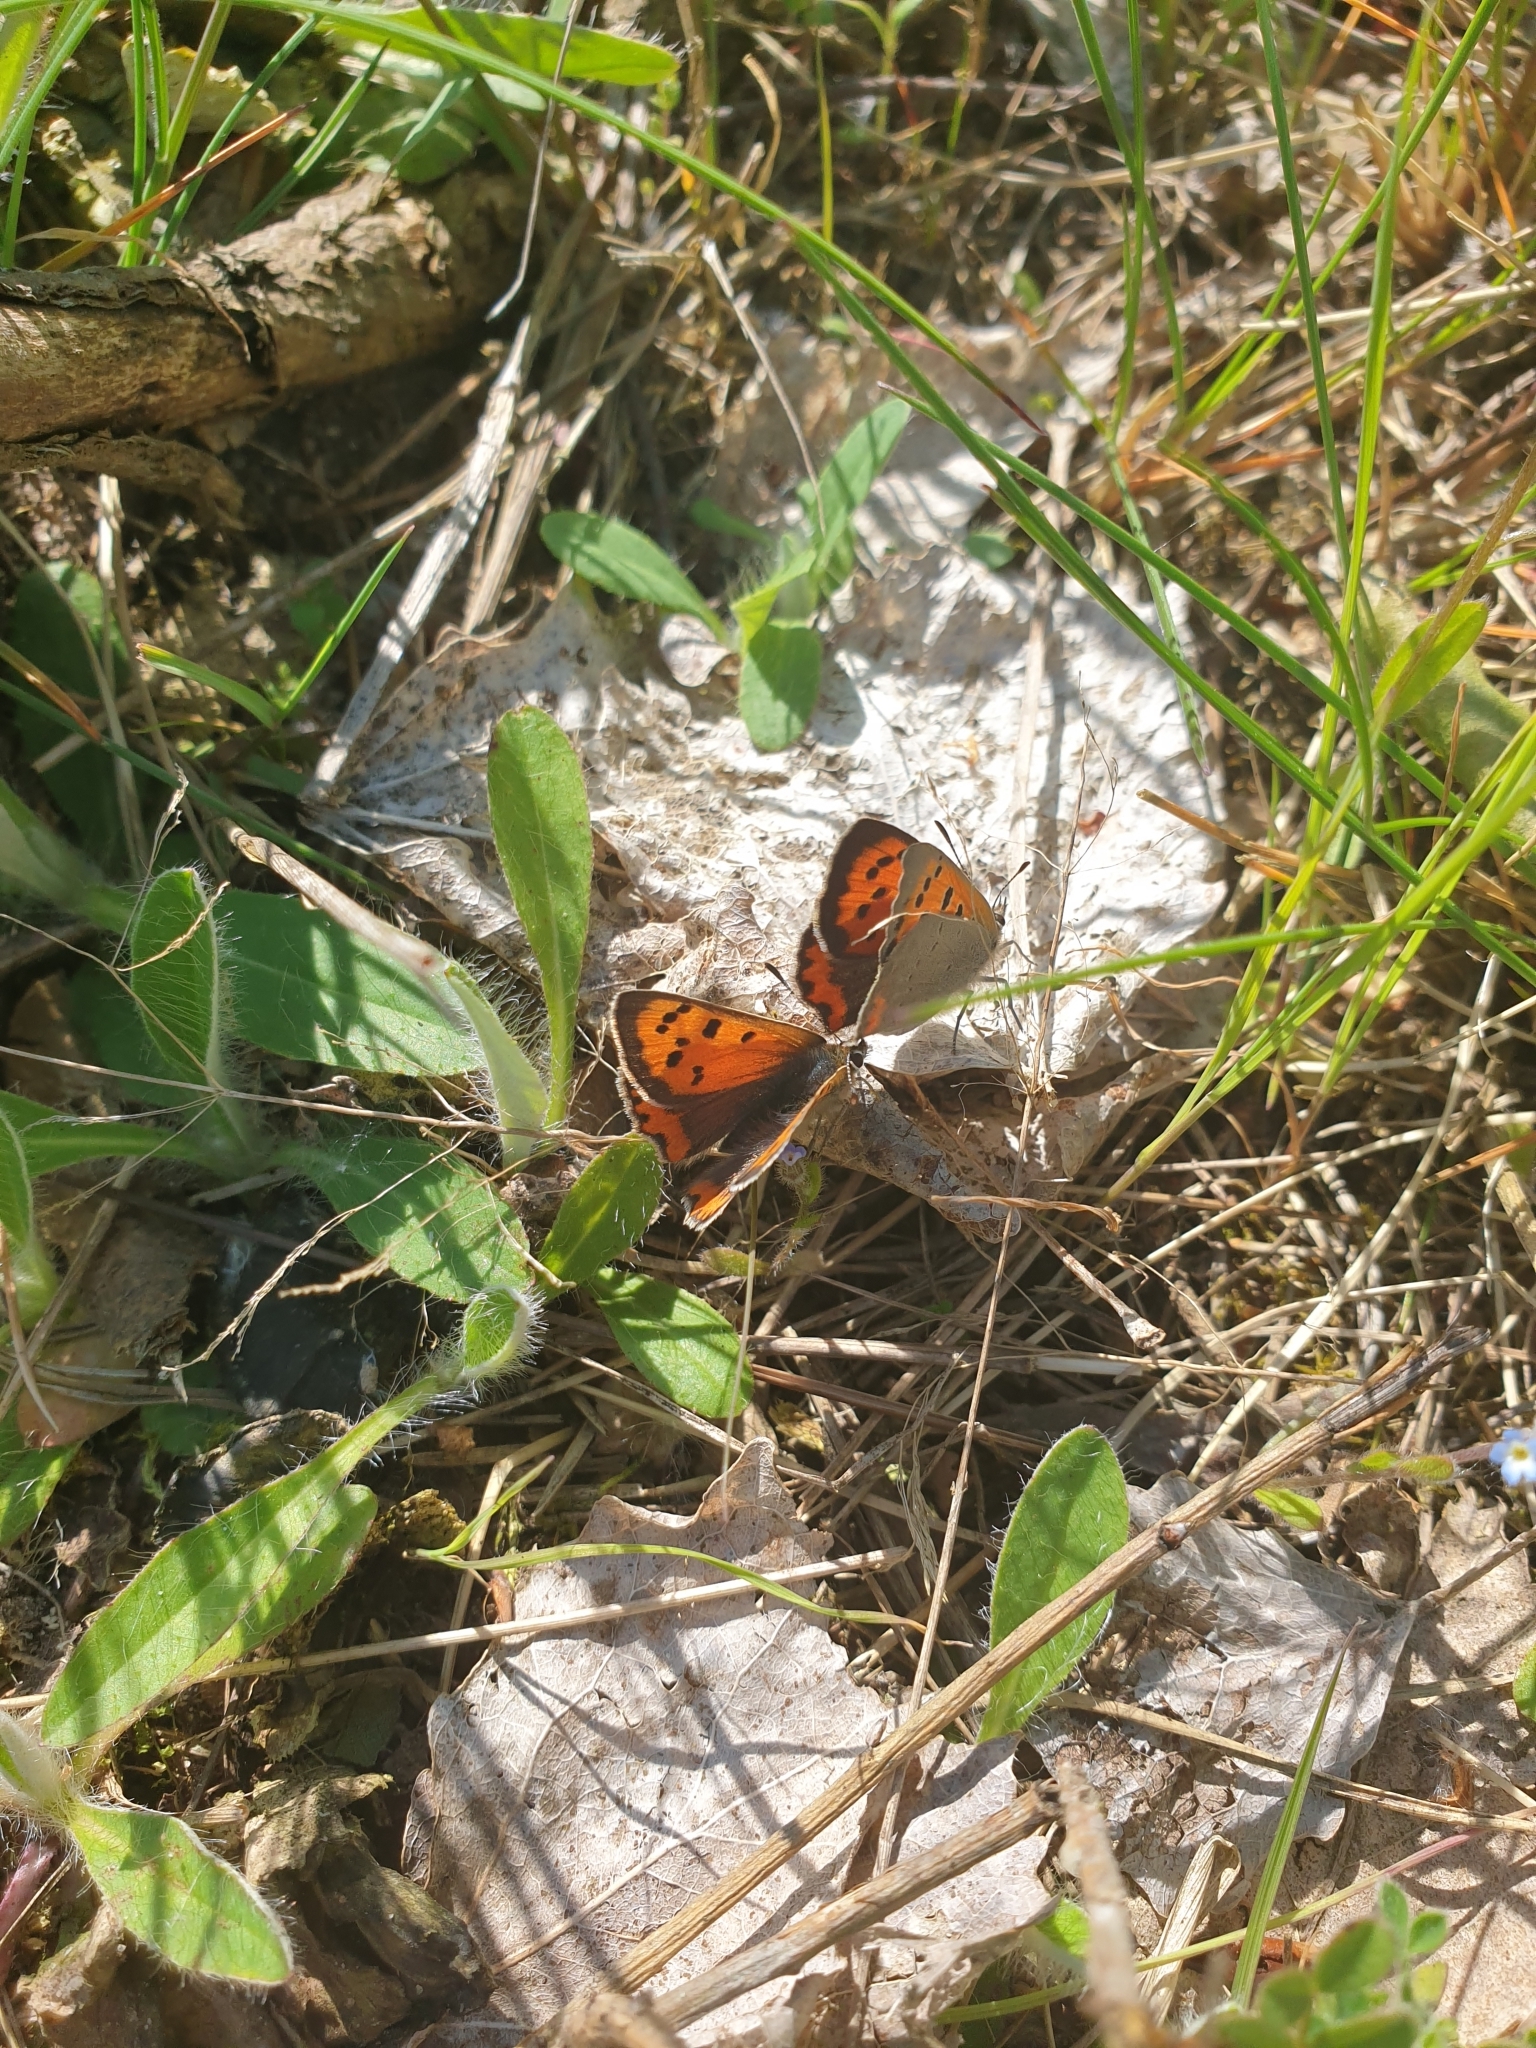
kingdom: Animalia
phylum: Arthropoda
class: Insecta
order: Lepidoptera
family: Lycaenidae
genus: Lycaena
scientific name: Lycaena phlaeas
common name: Small copper
